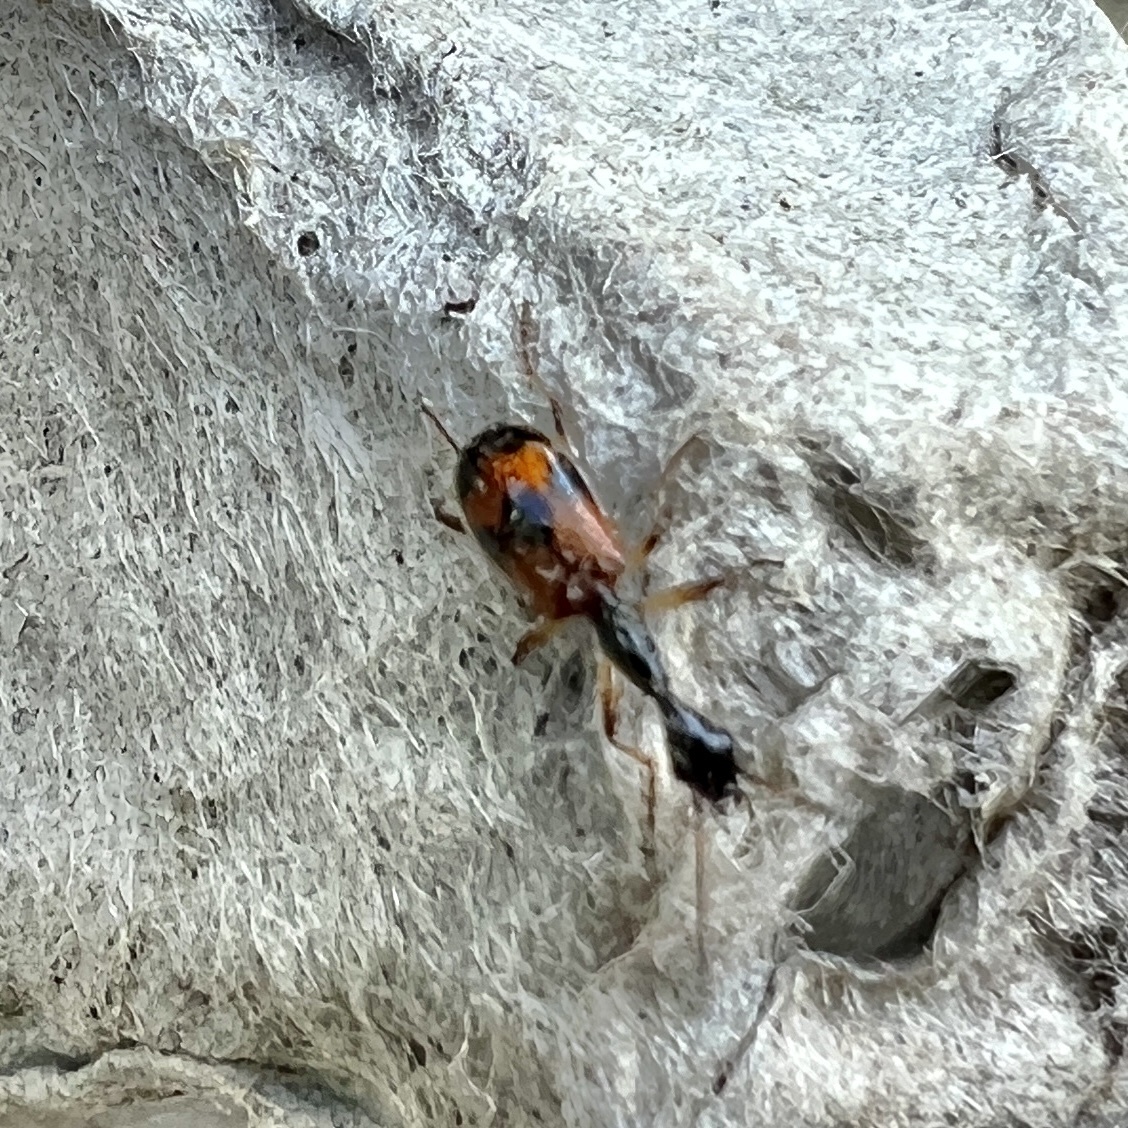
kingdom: Animalia
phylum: Arthropoda
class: Insecta
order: Coleoptera
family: Carabidae
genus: Colliuris
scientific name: Colliuris pensylvanica
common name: Long-necked ground beetle
